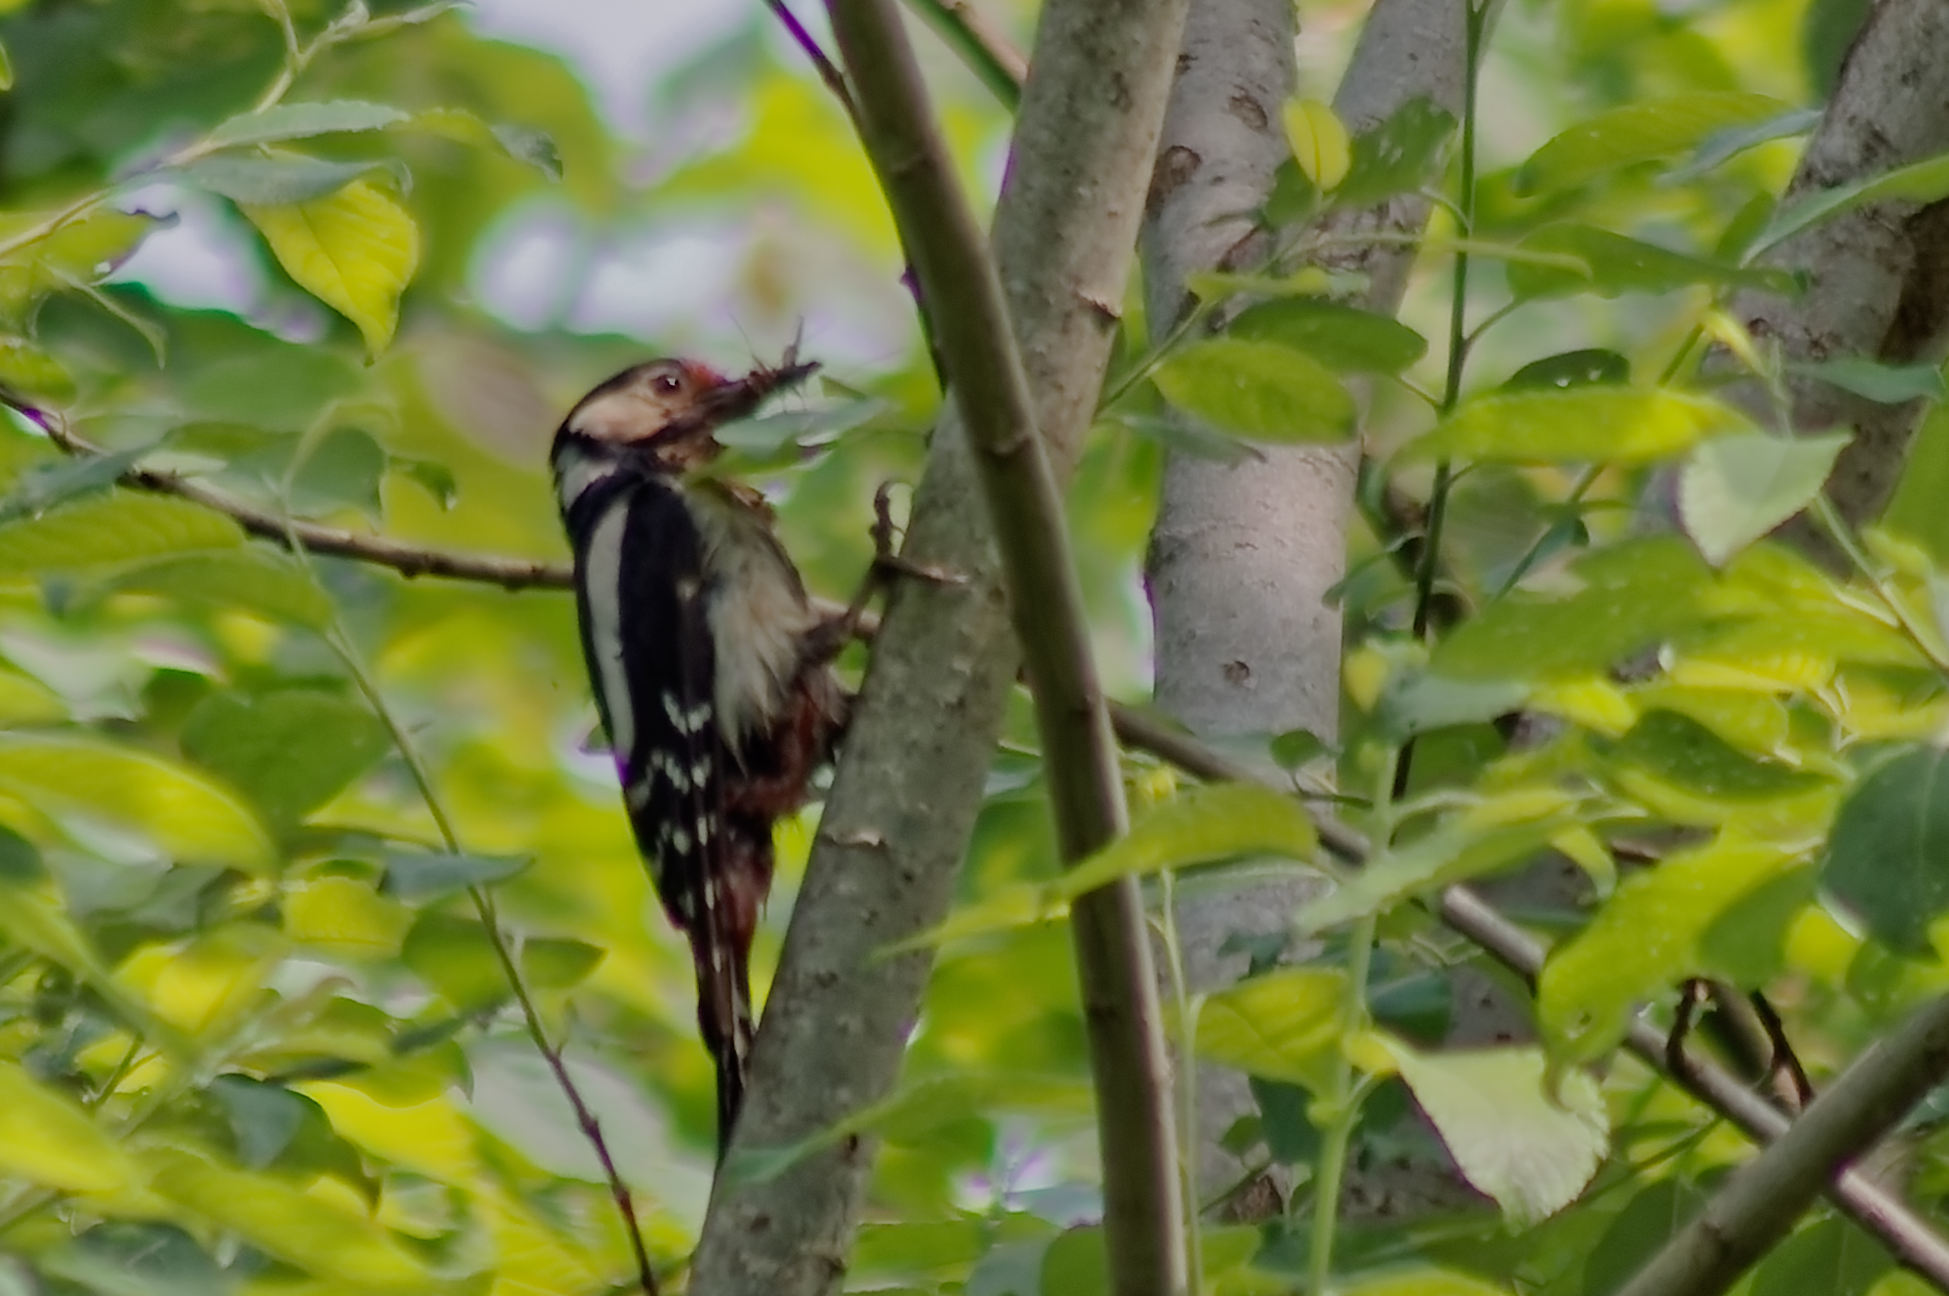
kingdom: Animalia
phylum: Chordata
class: Aves
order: Piciformes
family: Picidae
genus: Dendrocopos
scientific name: Dendrocopos major
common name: Great spotted woodpecker
